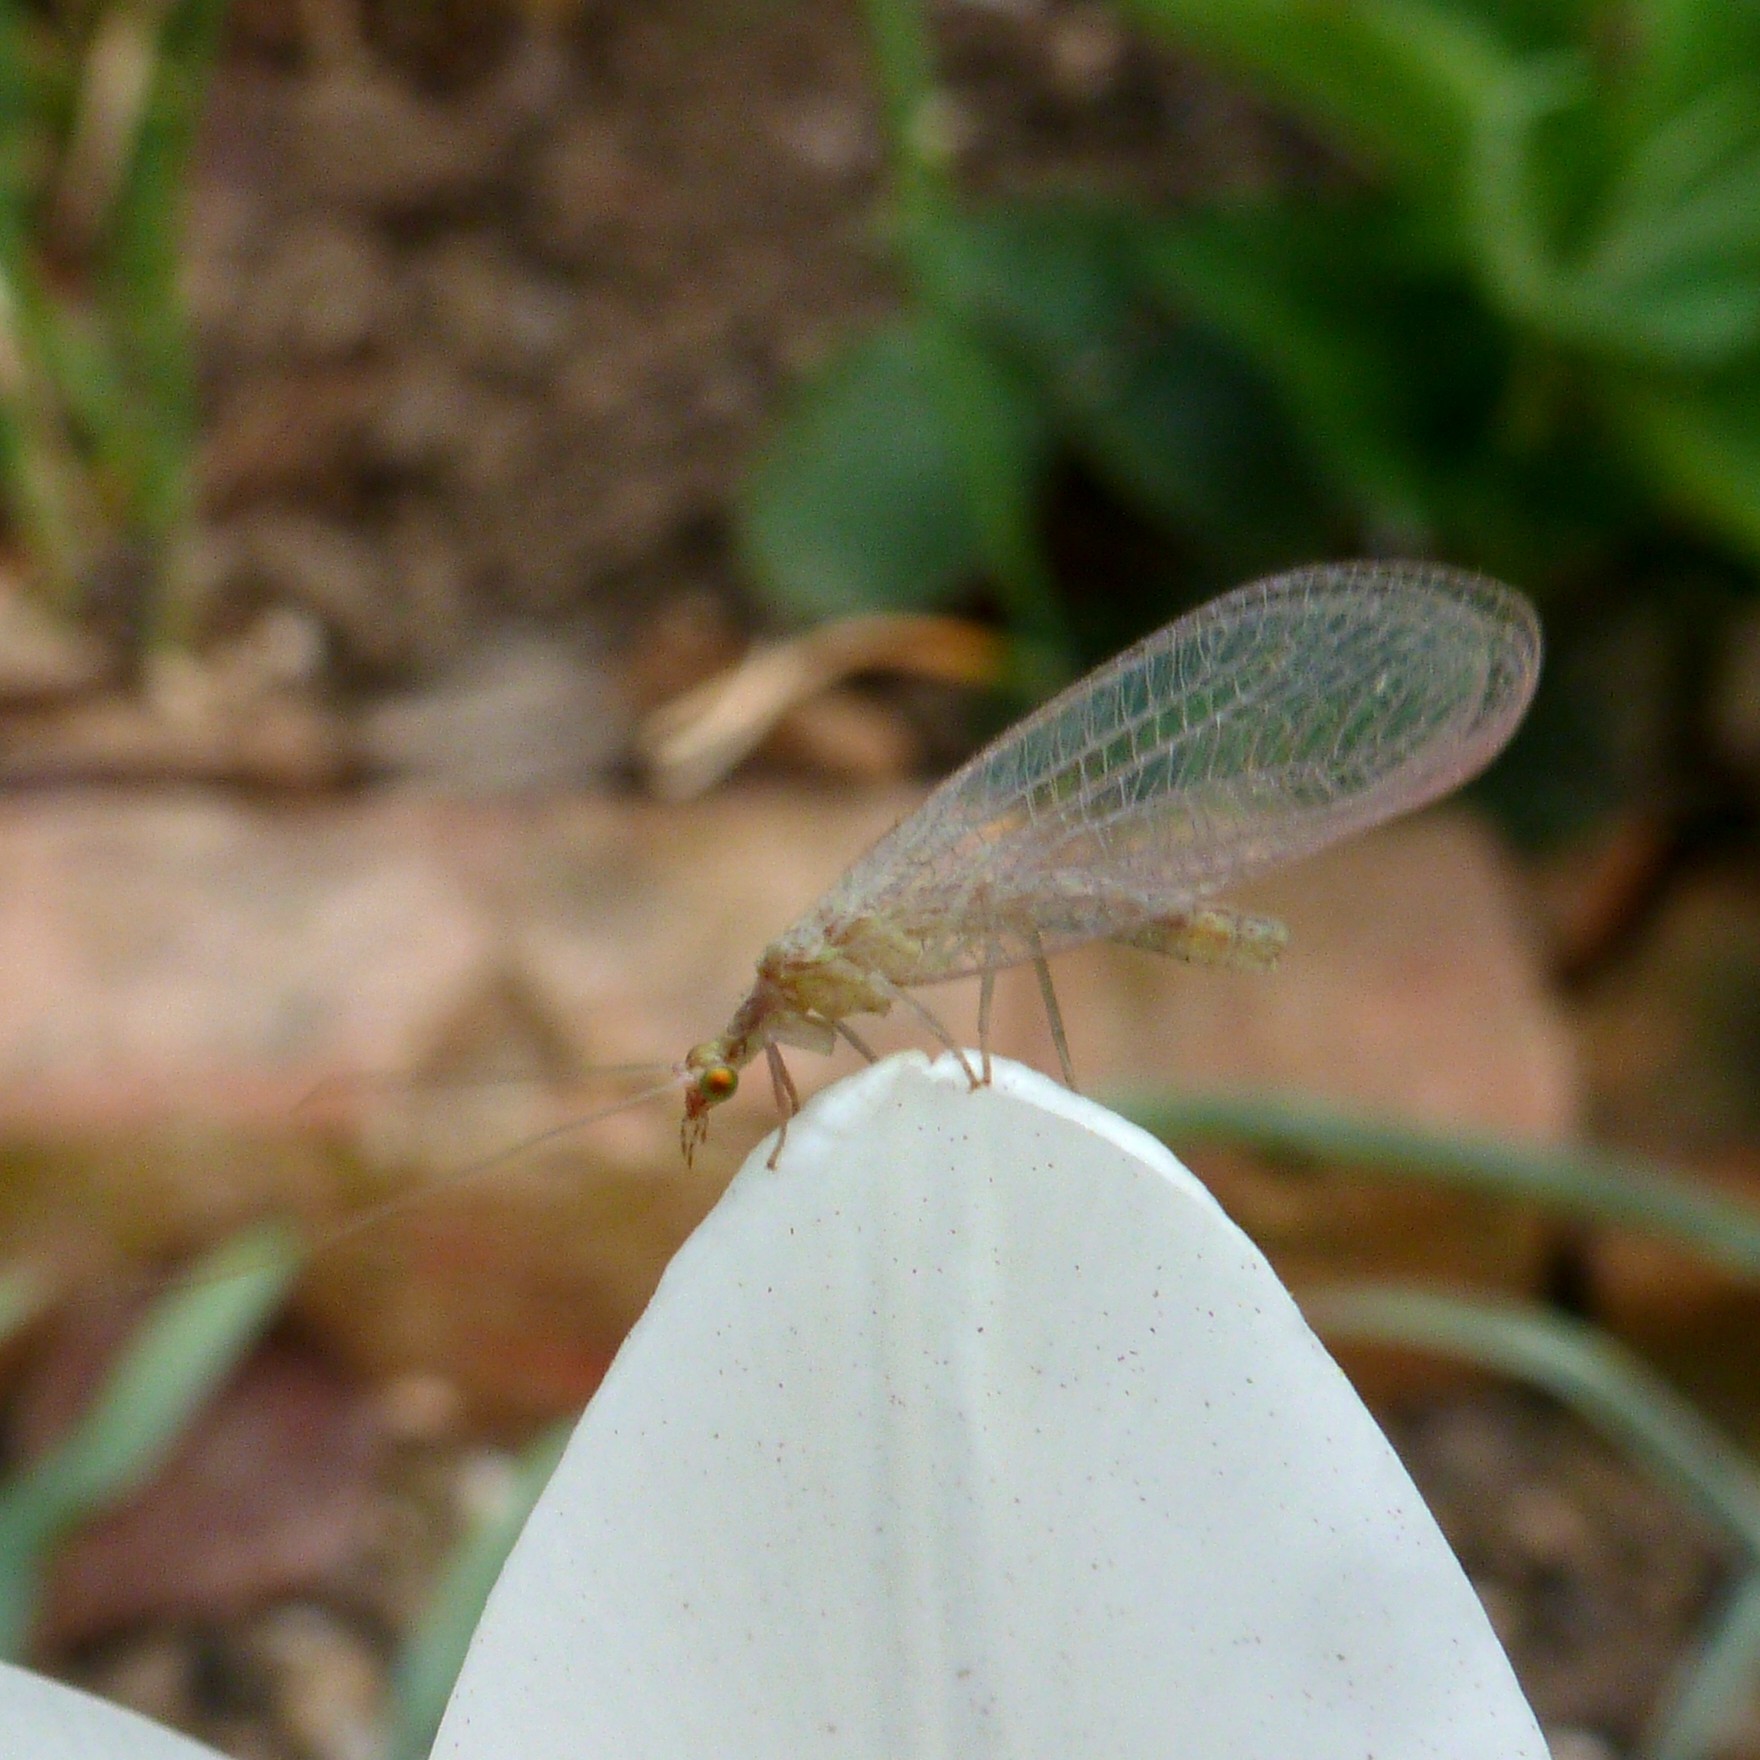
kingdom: Animalia
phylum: Arthropoda
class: Insecta
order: Neuroptera
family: Chrysopidae
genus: Chrysoperla
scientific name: Chrysoperla
